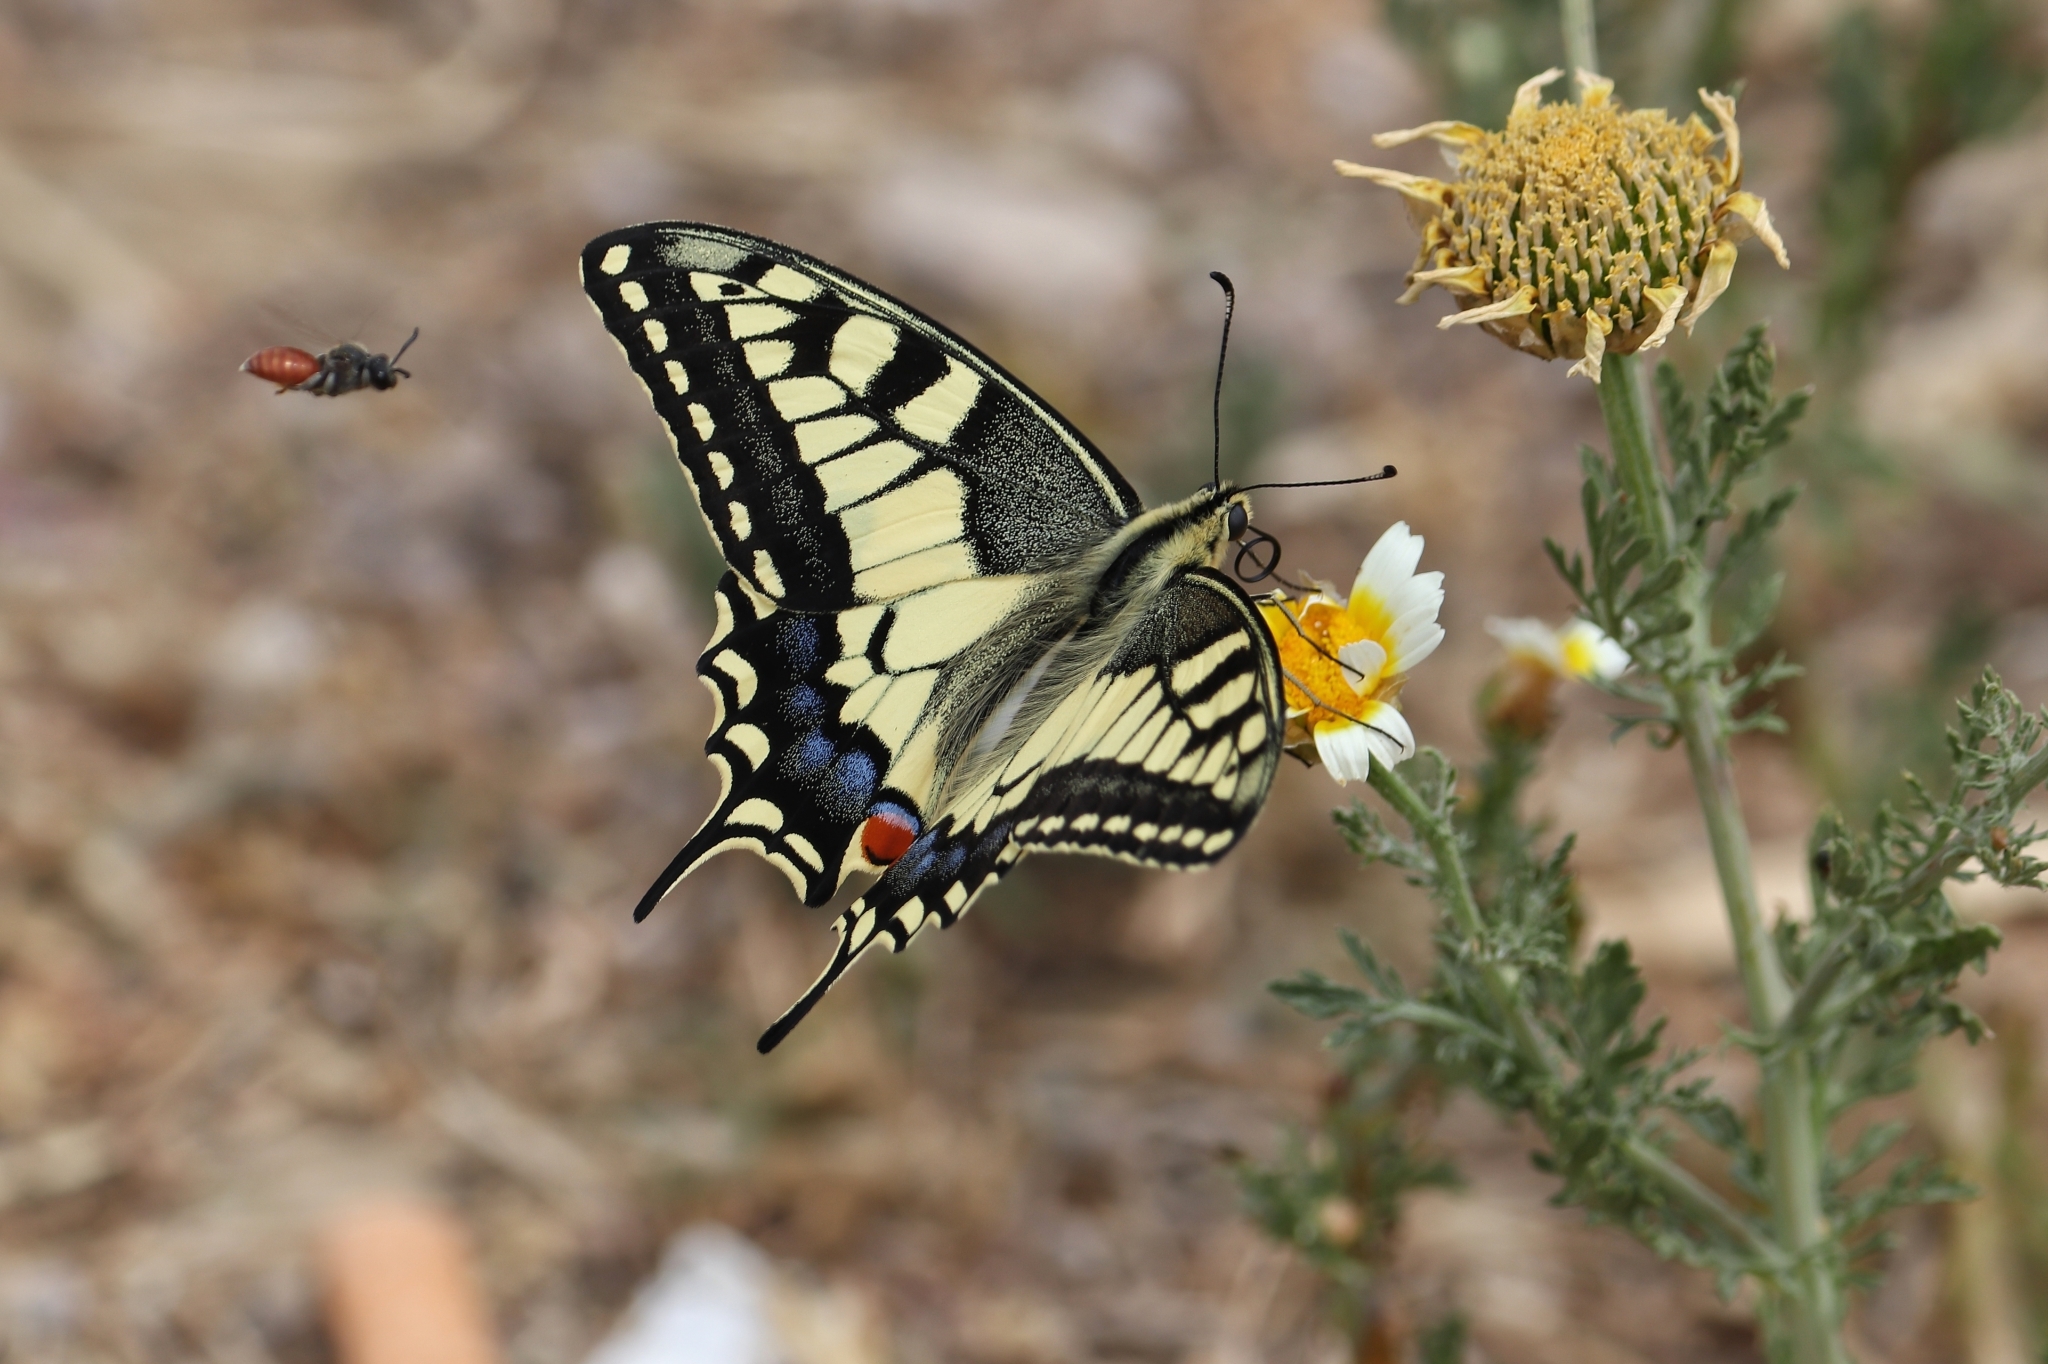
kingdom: Animalia
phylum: Arthropoda
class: Insecta
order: Lepidoptera
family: Papilionidae
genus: Papilio
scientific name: Papilio machaon
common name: Swallowtail
